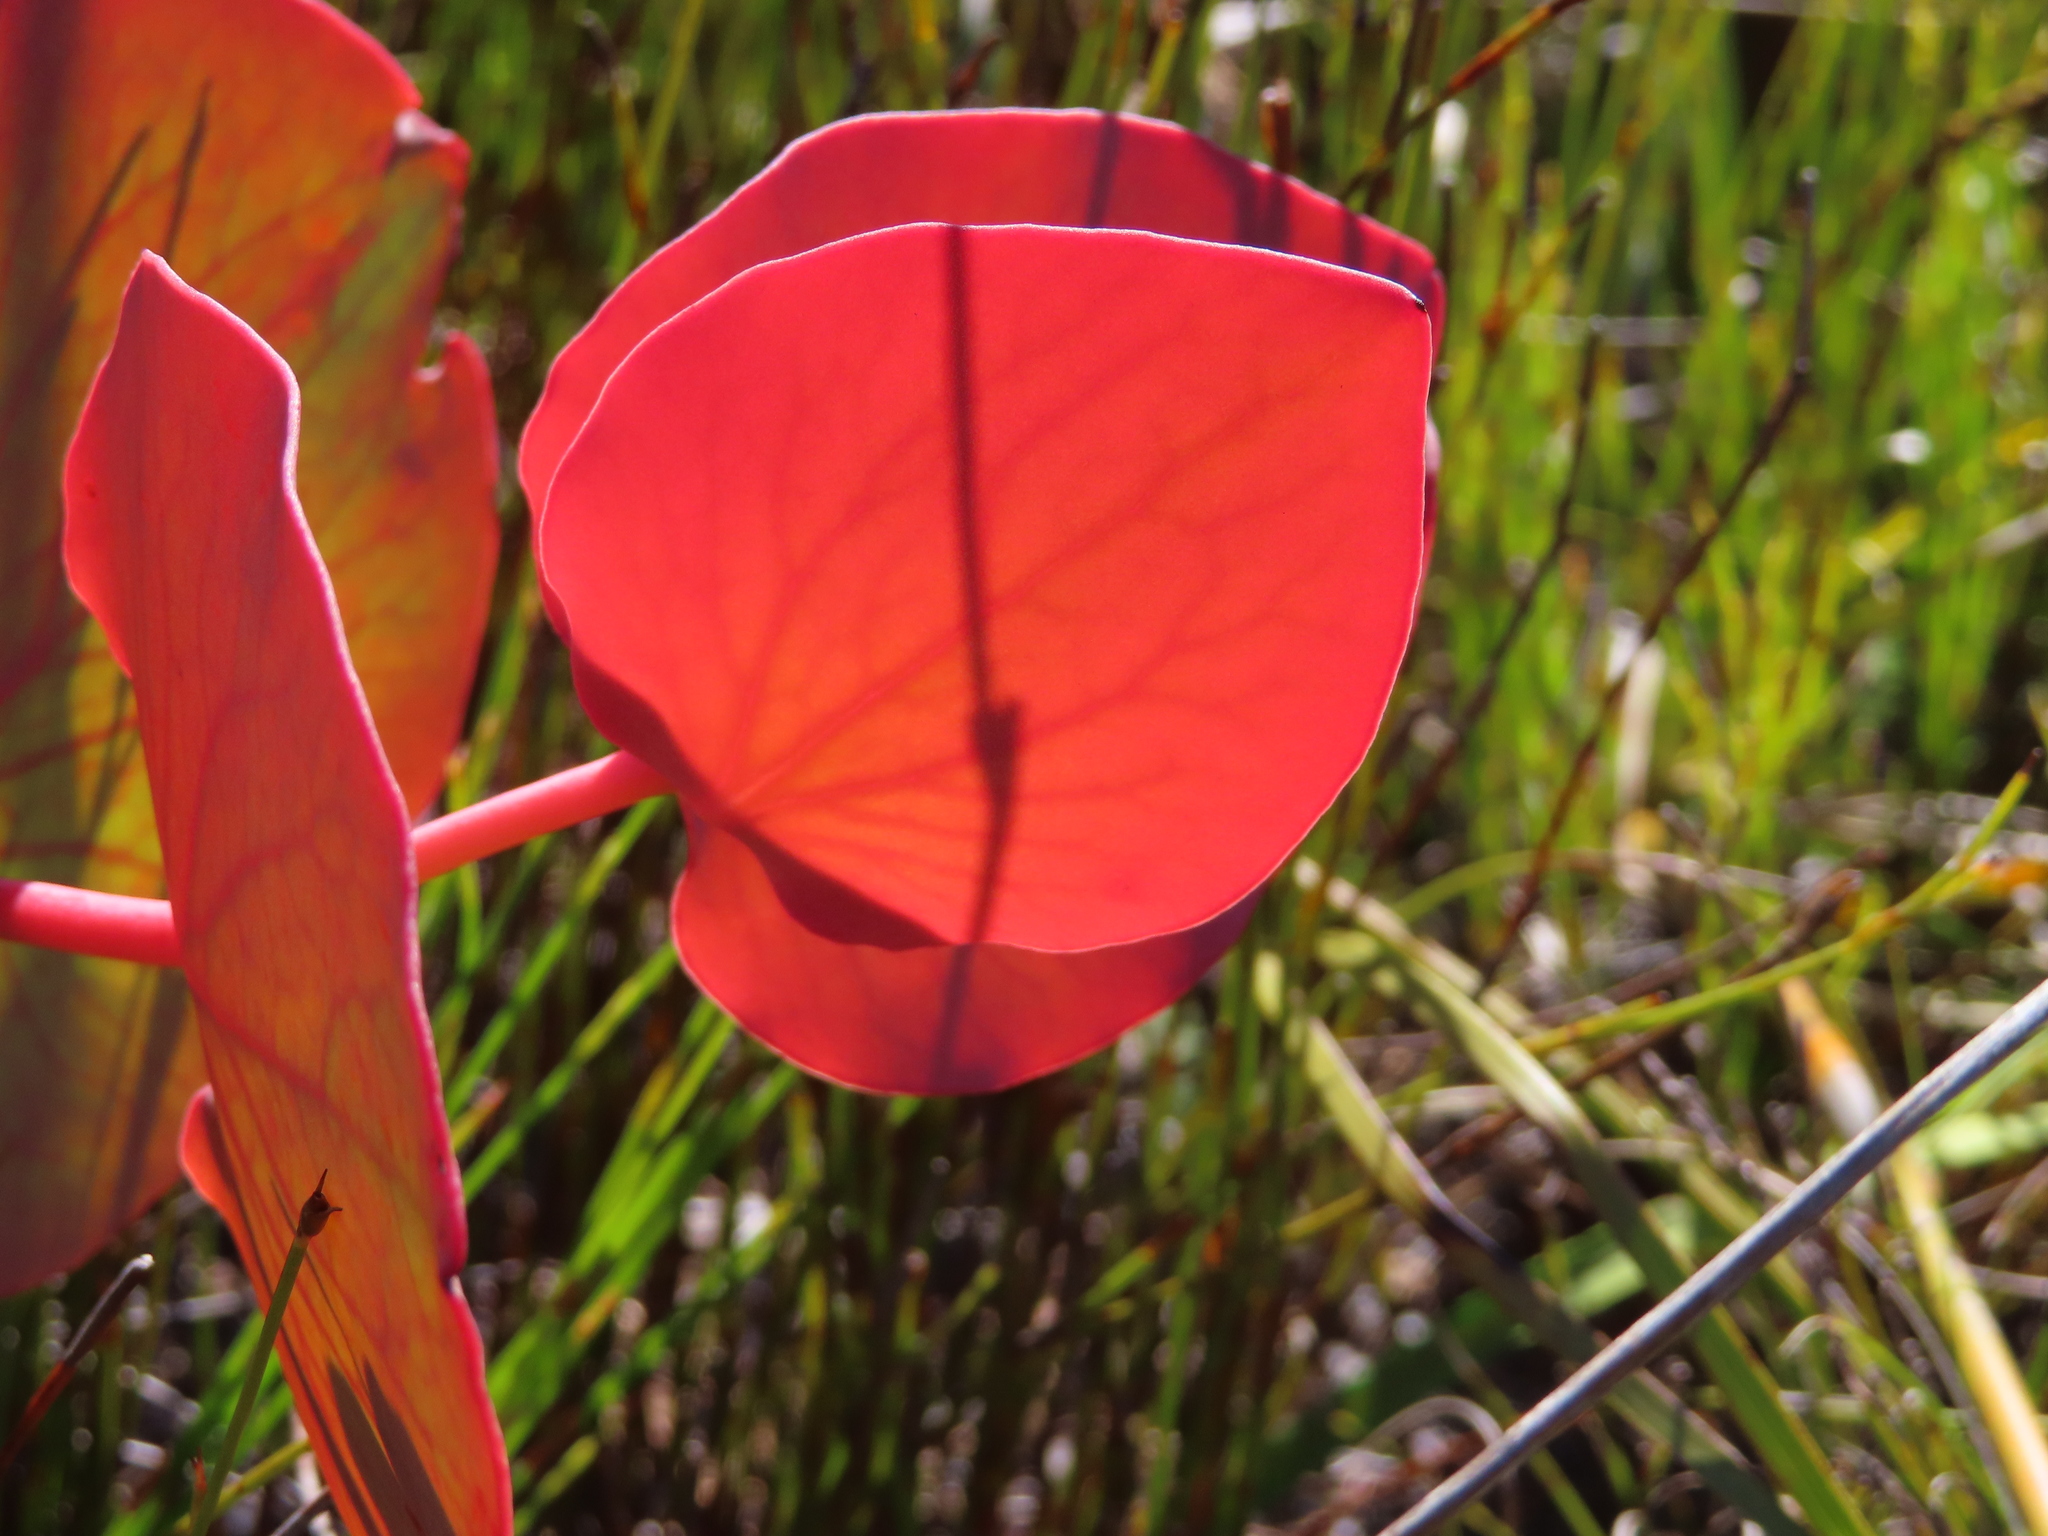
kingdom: Plantae
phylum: Tracheophyta
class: Magnoliopsida
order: Proteales
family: Proteaceae
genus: Protea
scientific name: Protea cordata
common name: Heart-leaf sugarbush
